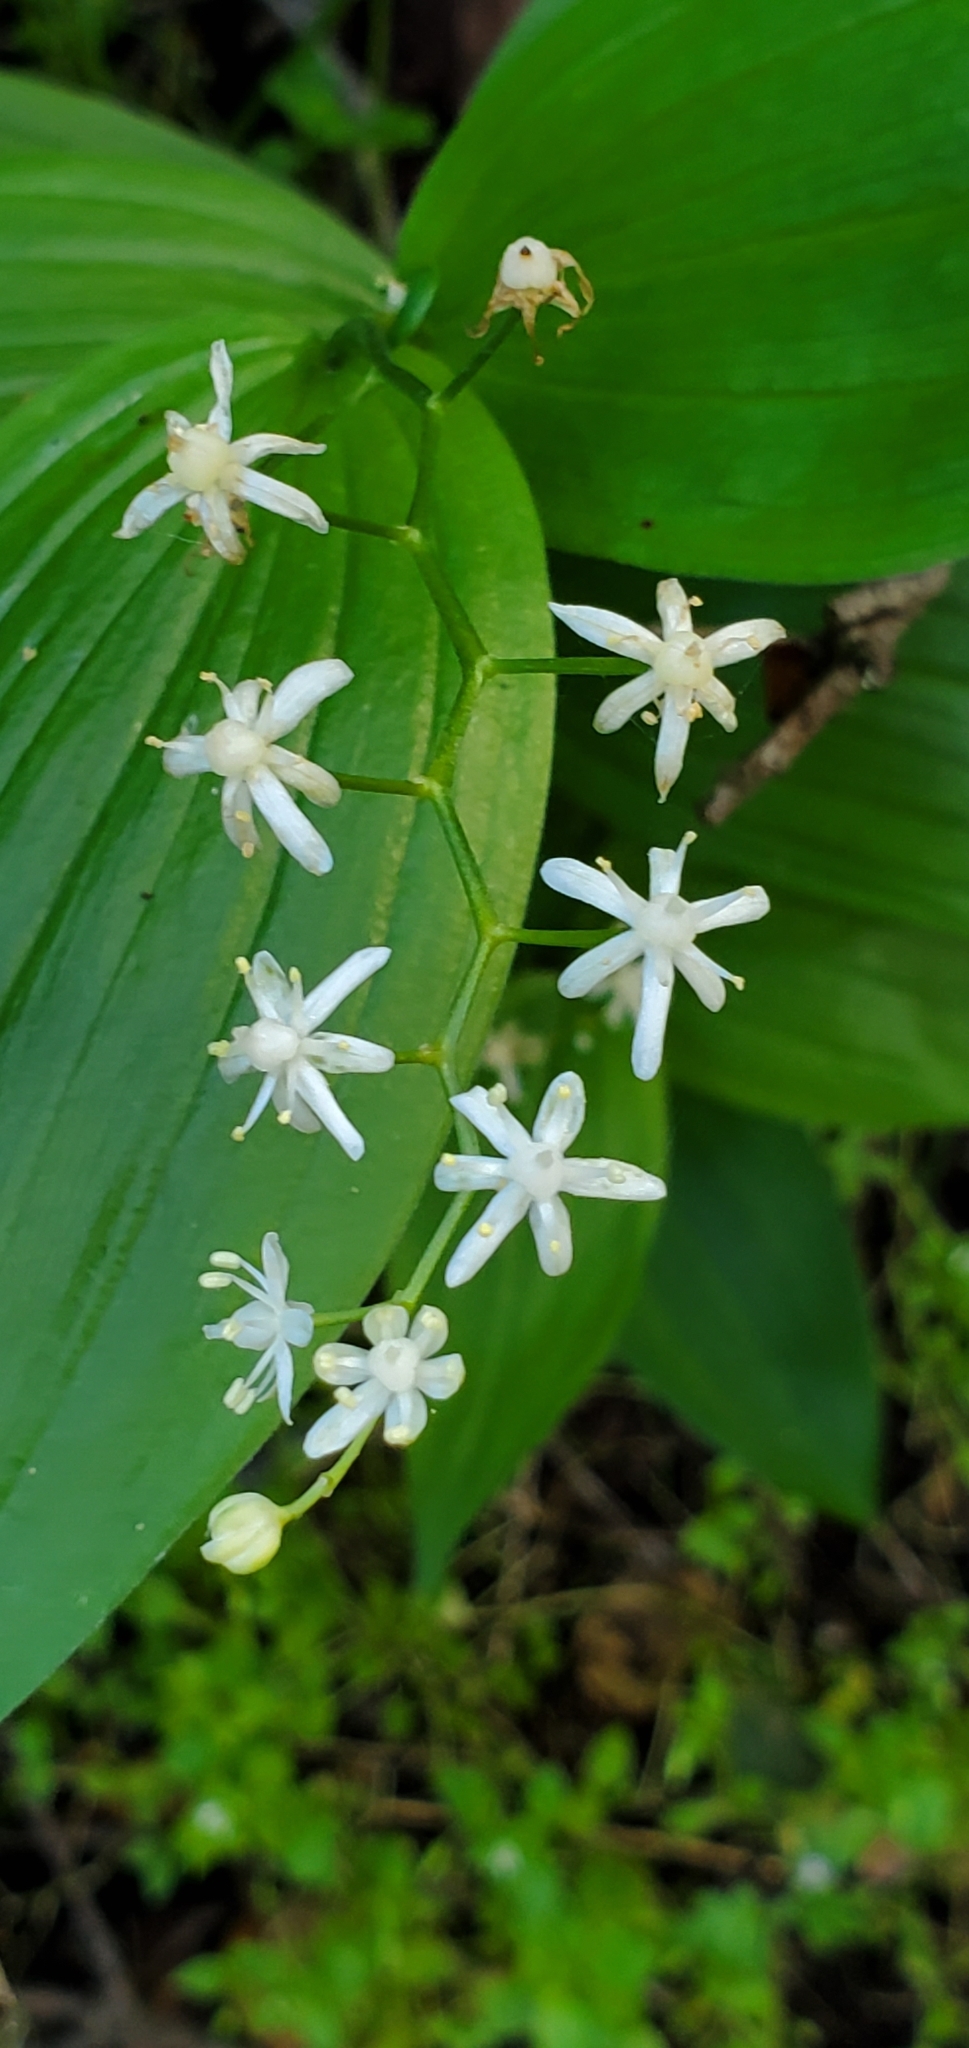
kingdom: Plantae
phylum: Tracheophyta
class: Liliopsida
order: Asparagales
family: Asparagaceae
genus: Maianthemum
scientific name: Maianthemum stellatum
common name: Little false solomon's seal
